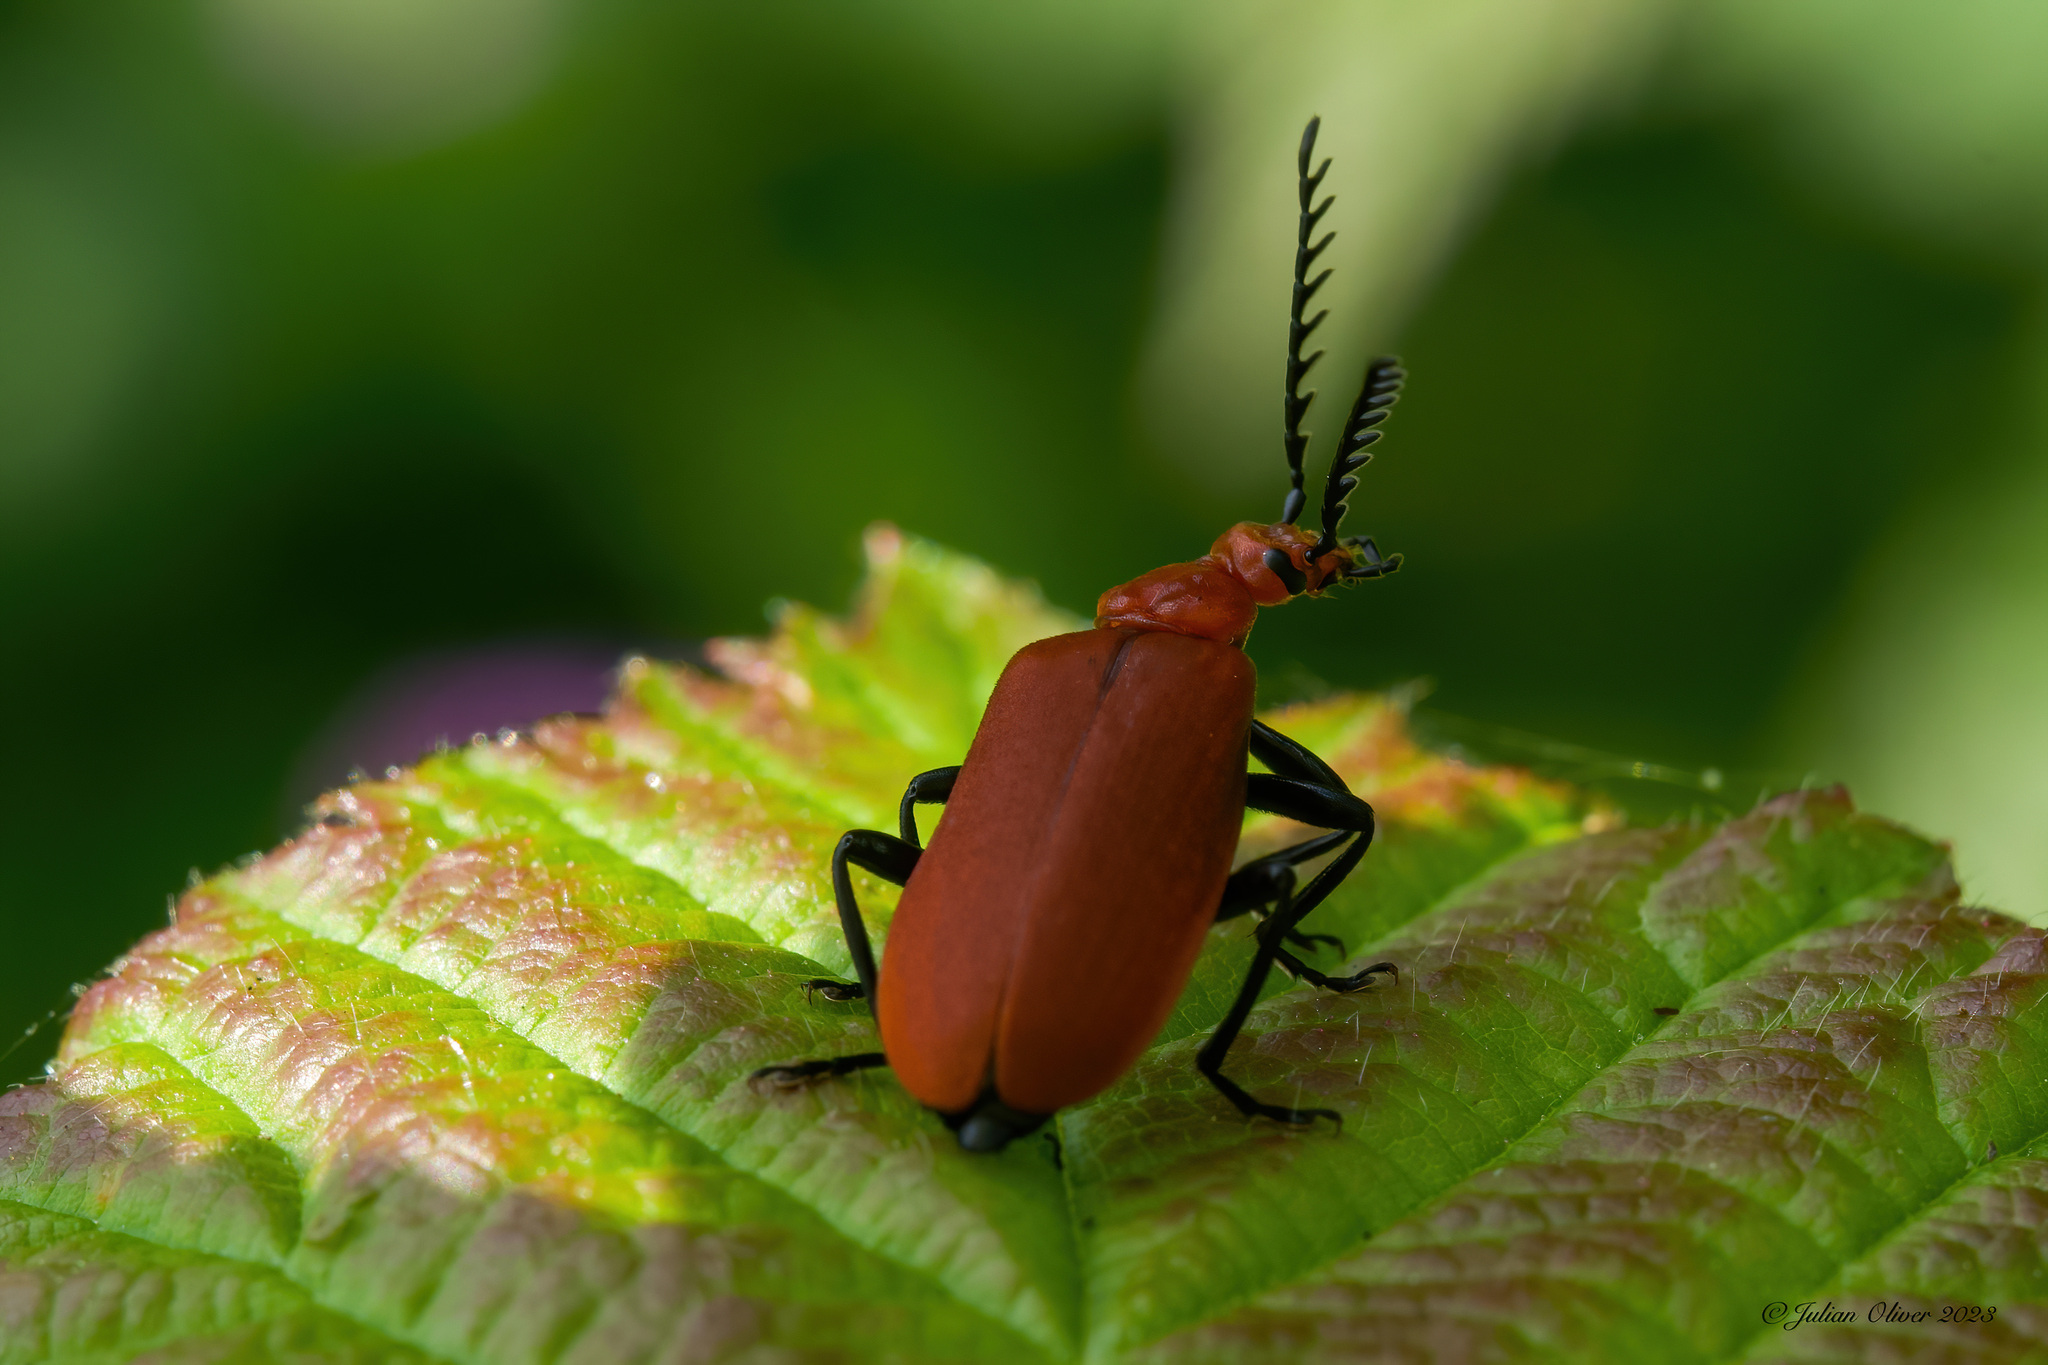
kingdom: Animalia
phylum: Arthropoda
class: Insecta
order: Coleoptera
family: Pyrochroidae
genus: Pyrochroa
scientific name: Pyrochroa serraticornis
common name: Red-headed cardinal beetle
